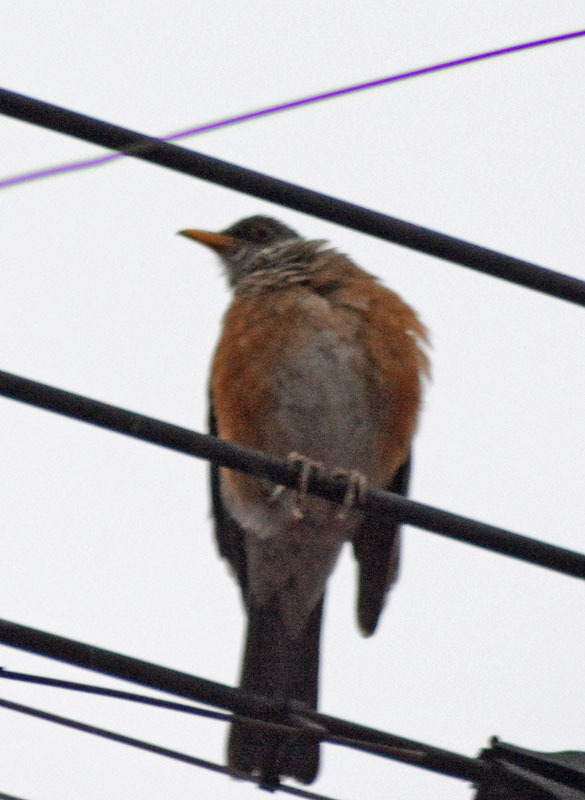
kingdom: Animalia
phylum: Chordata
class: Aves
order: Passeriformes
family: Turdidae
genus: Turdus
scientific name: Turdus rufopalliatus
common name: Rufous-backed robin
